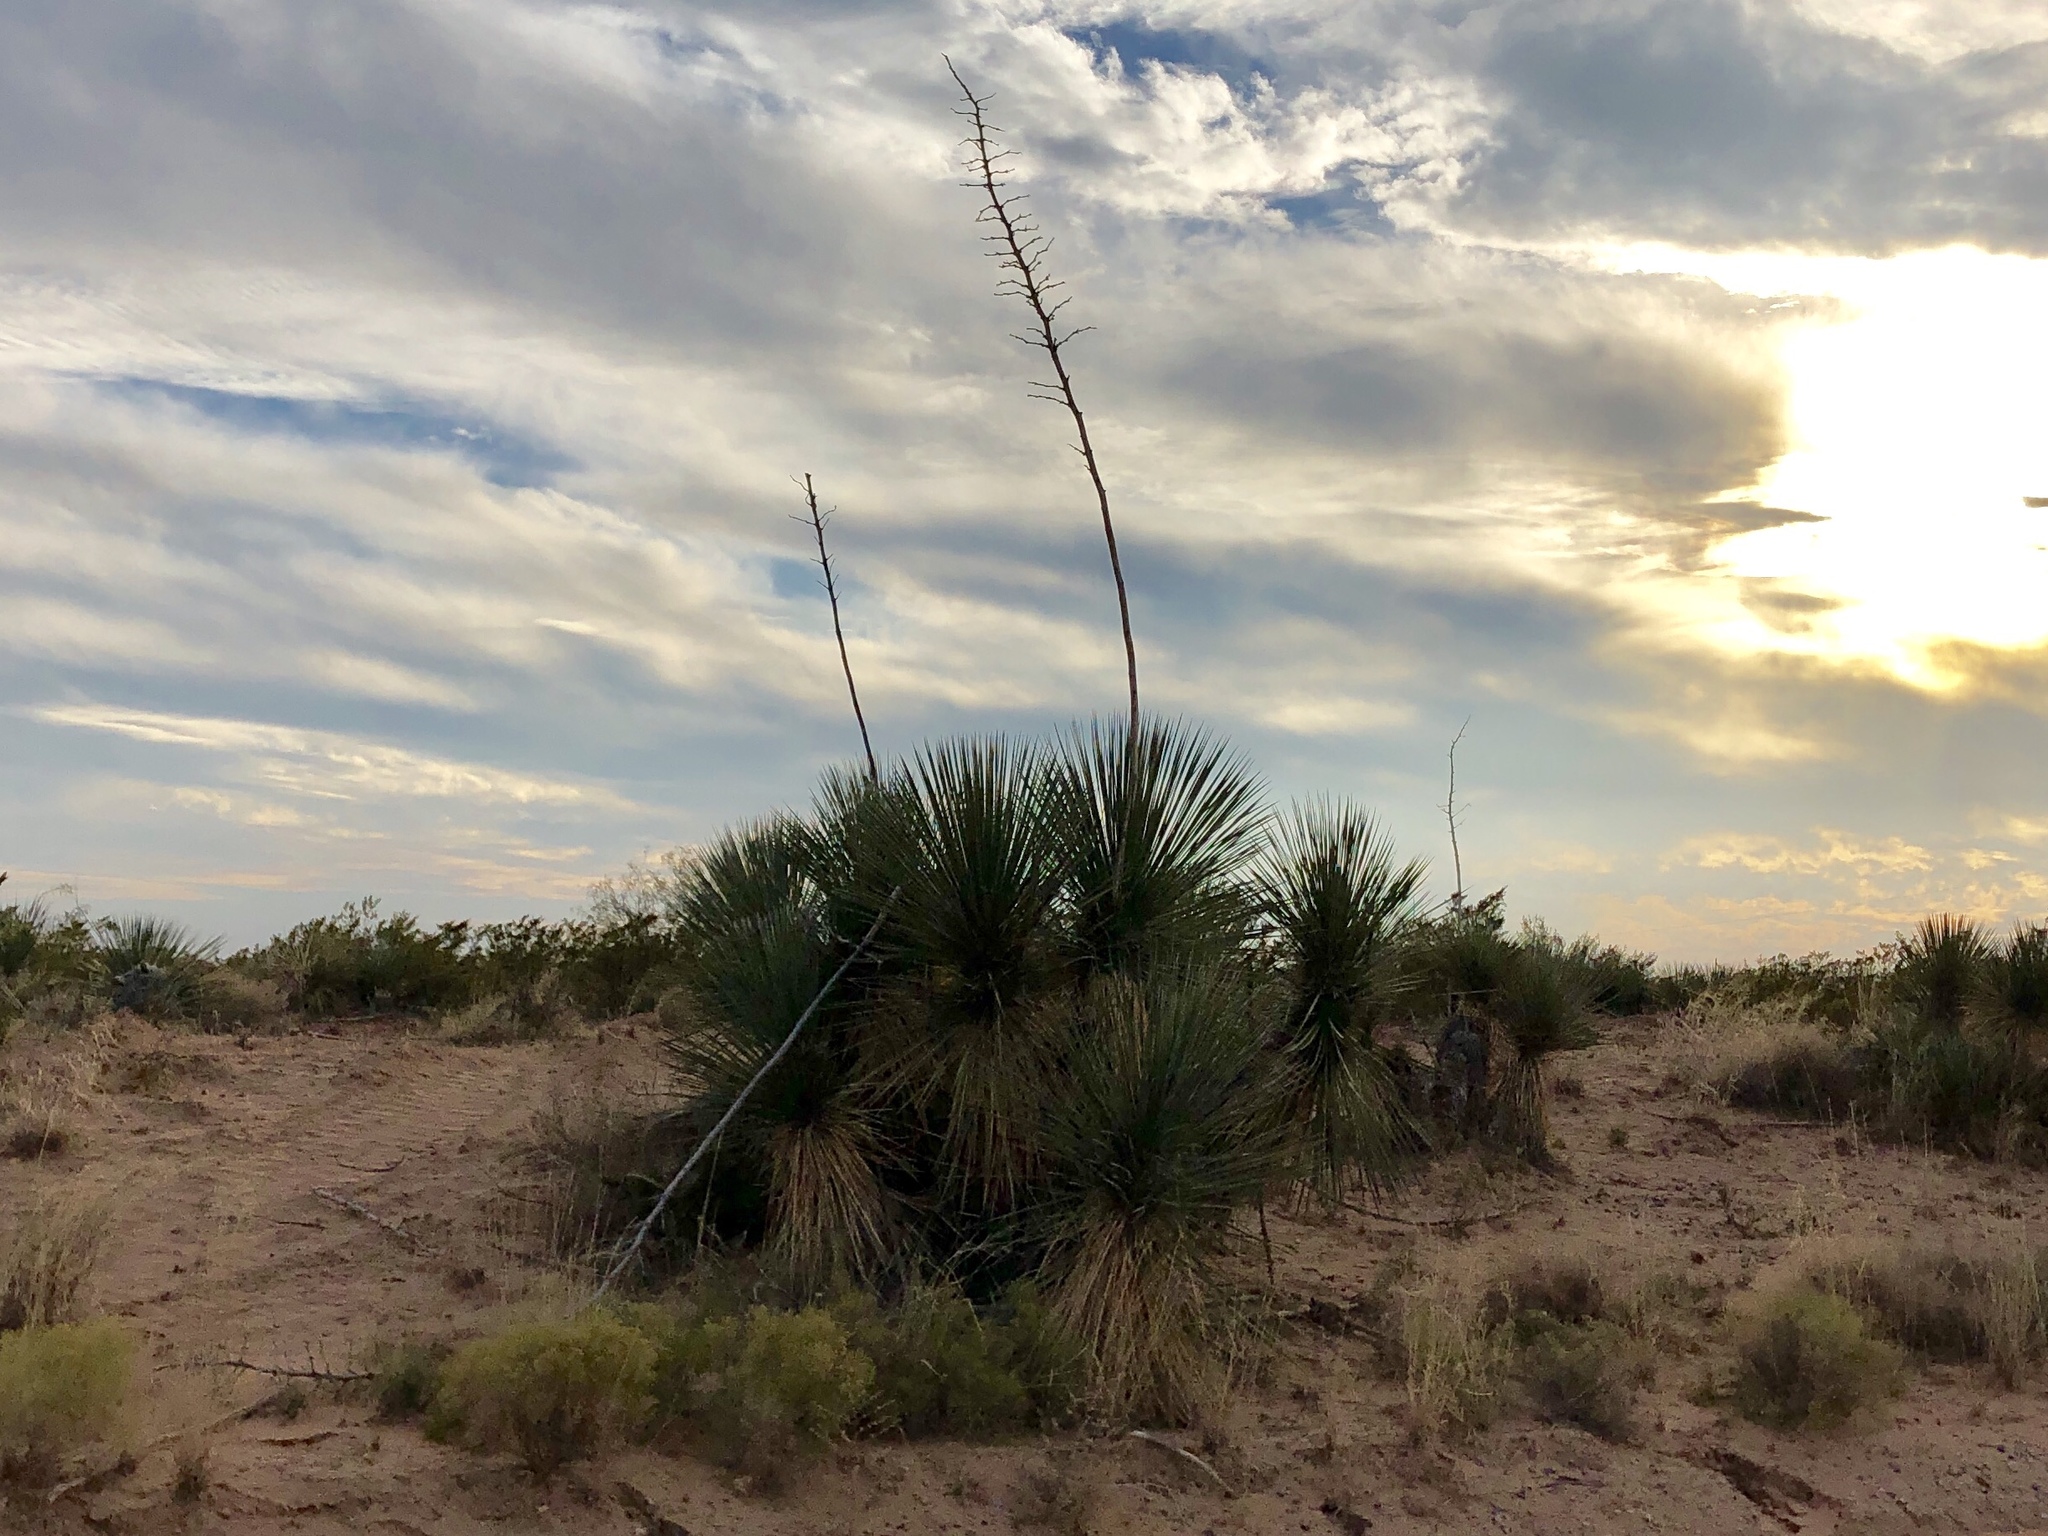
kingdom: Plantae
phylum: Tracheophyta
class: Liliopsida
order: Asparagales
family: Asparagaceae
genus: Yucca
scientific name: Yucca elata
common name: Palmella
